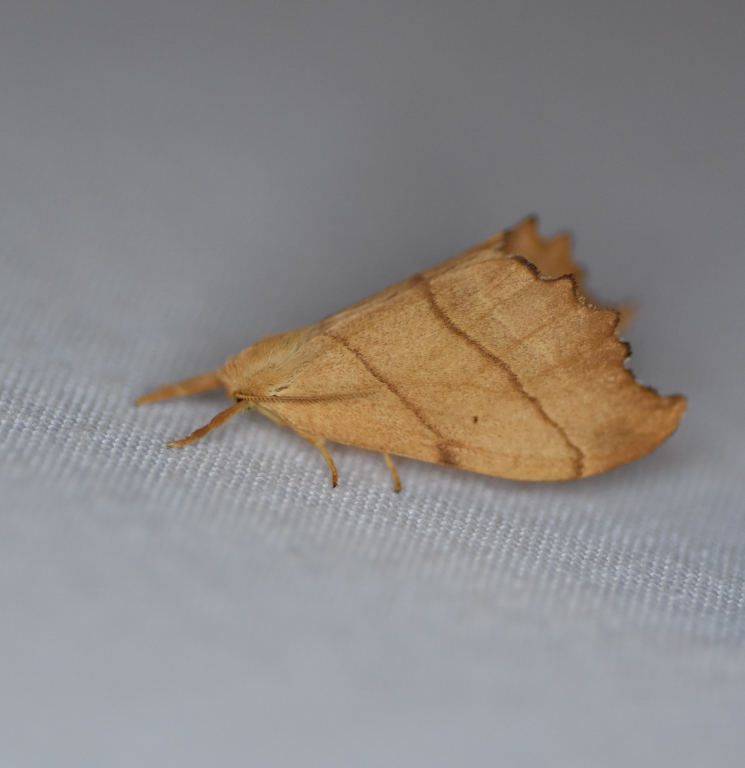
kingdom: Animalia
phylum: Arthropoda
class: Insecta
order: Lepidoptera
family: Drepanidae
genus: Falcaria
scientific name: Falcaria bilineata
